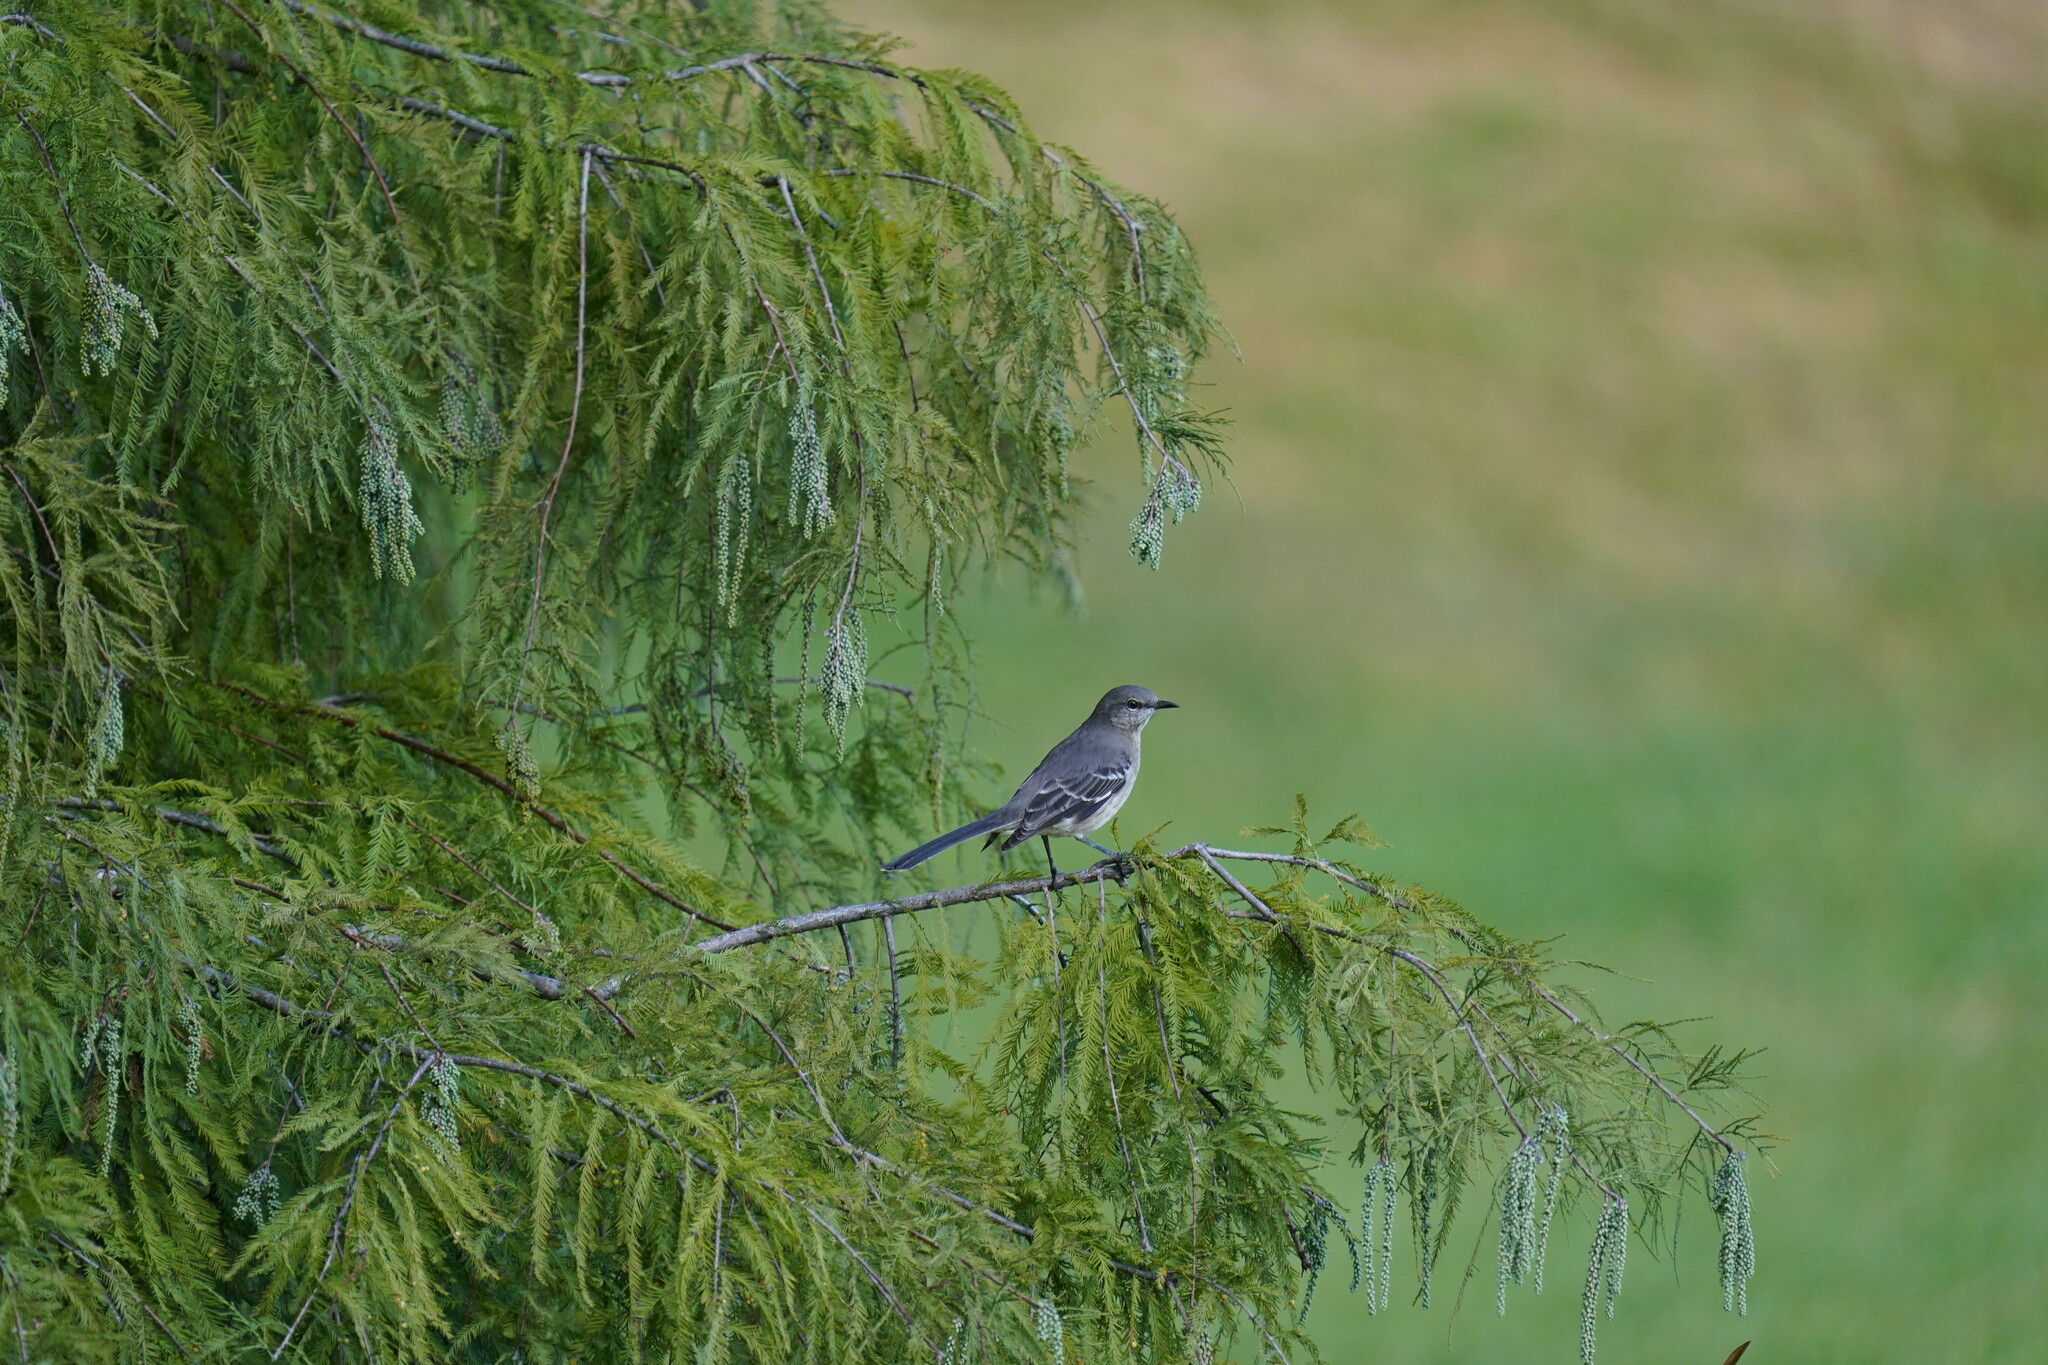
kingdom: Animalia
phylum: Chordata
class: Aves
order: Passeriformes
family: Mimidae
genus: Mimus
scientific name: Mimus polyglottos
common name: Northern mockingbird
